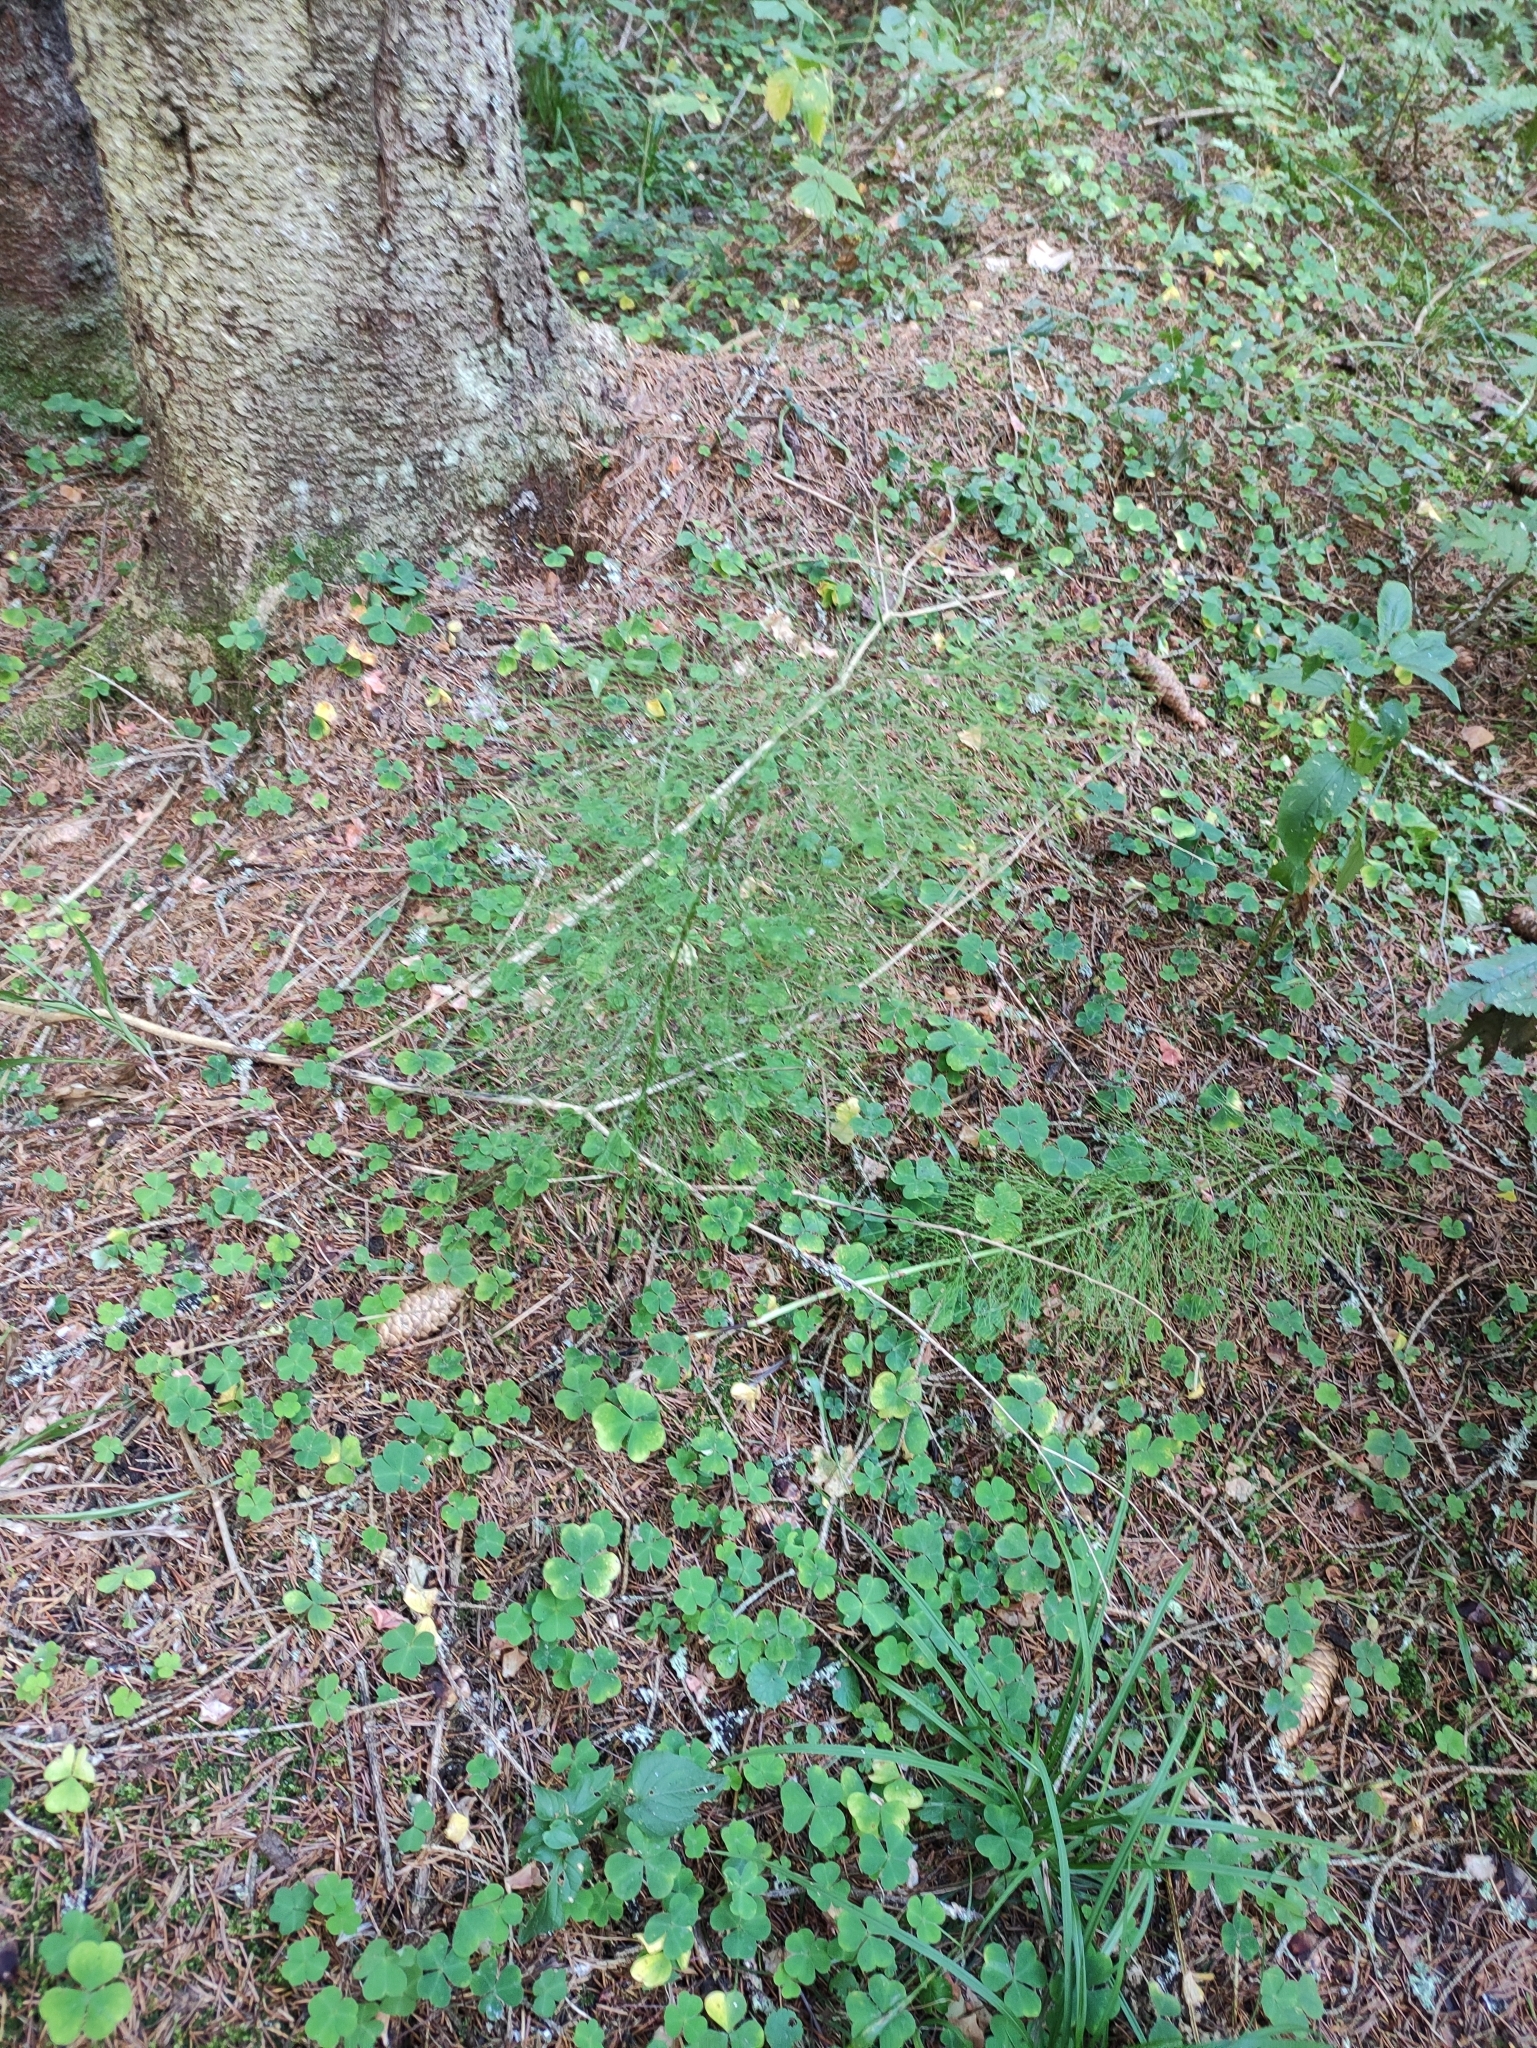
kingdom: Plantae
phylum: Tracheophyta
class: Polypodiopsida
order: Equisetales
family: Equisetaceae
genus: Equisetum
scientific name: Equisetum sylvaticum
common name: Wood horsetail
